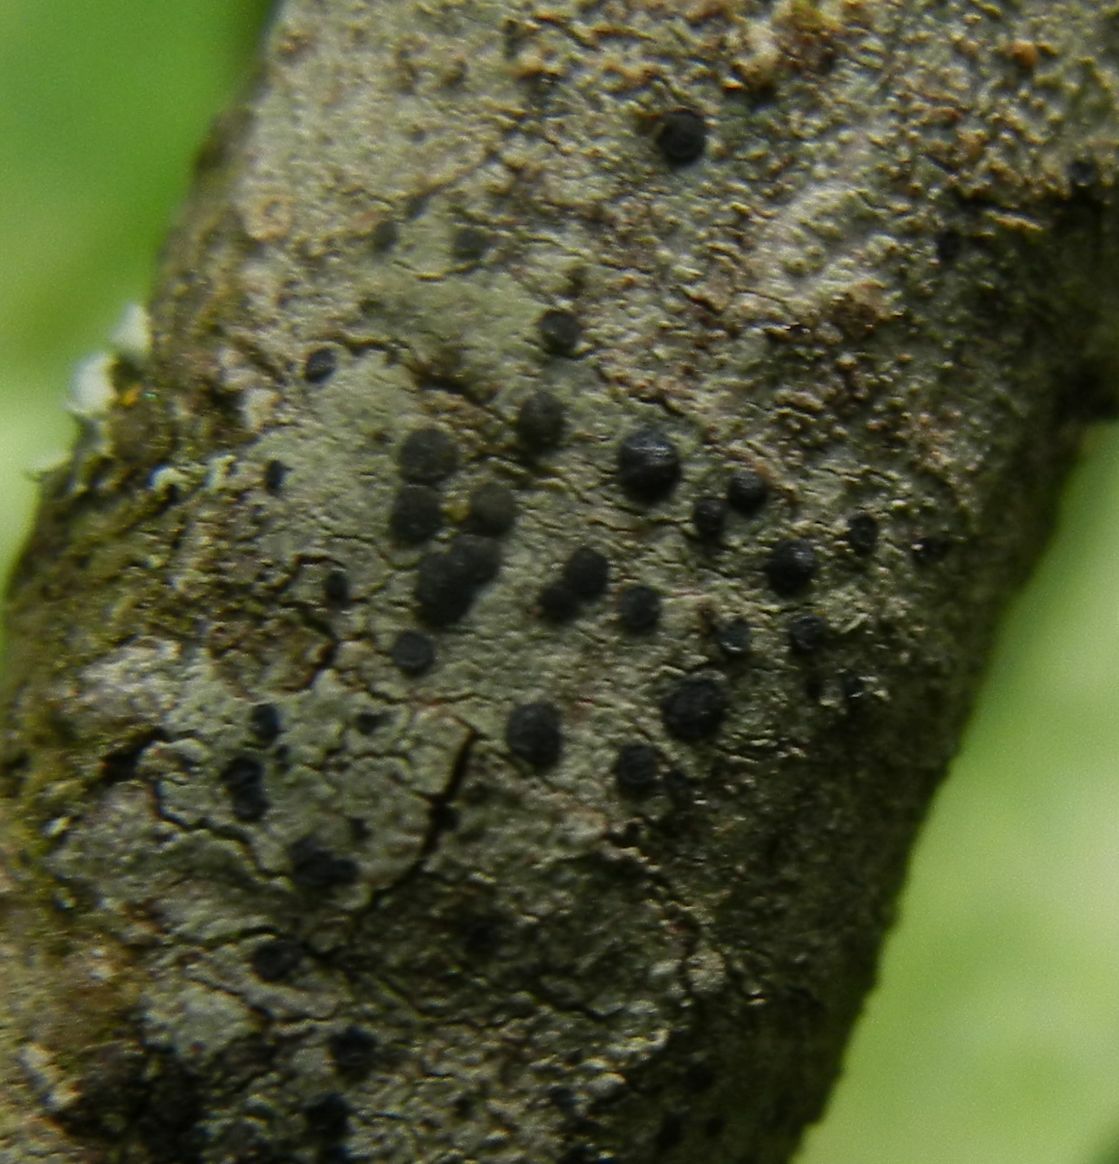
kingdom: Fungi
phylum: Ascomycota
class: Lecanoromycetes
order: Lecanorales
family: Lecanoraceae
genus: Lecidella
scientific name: Lecidella elaeochroma
